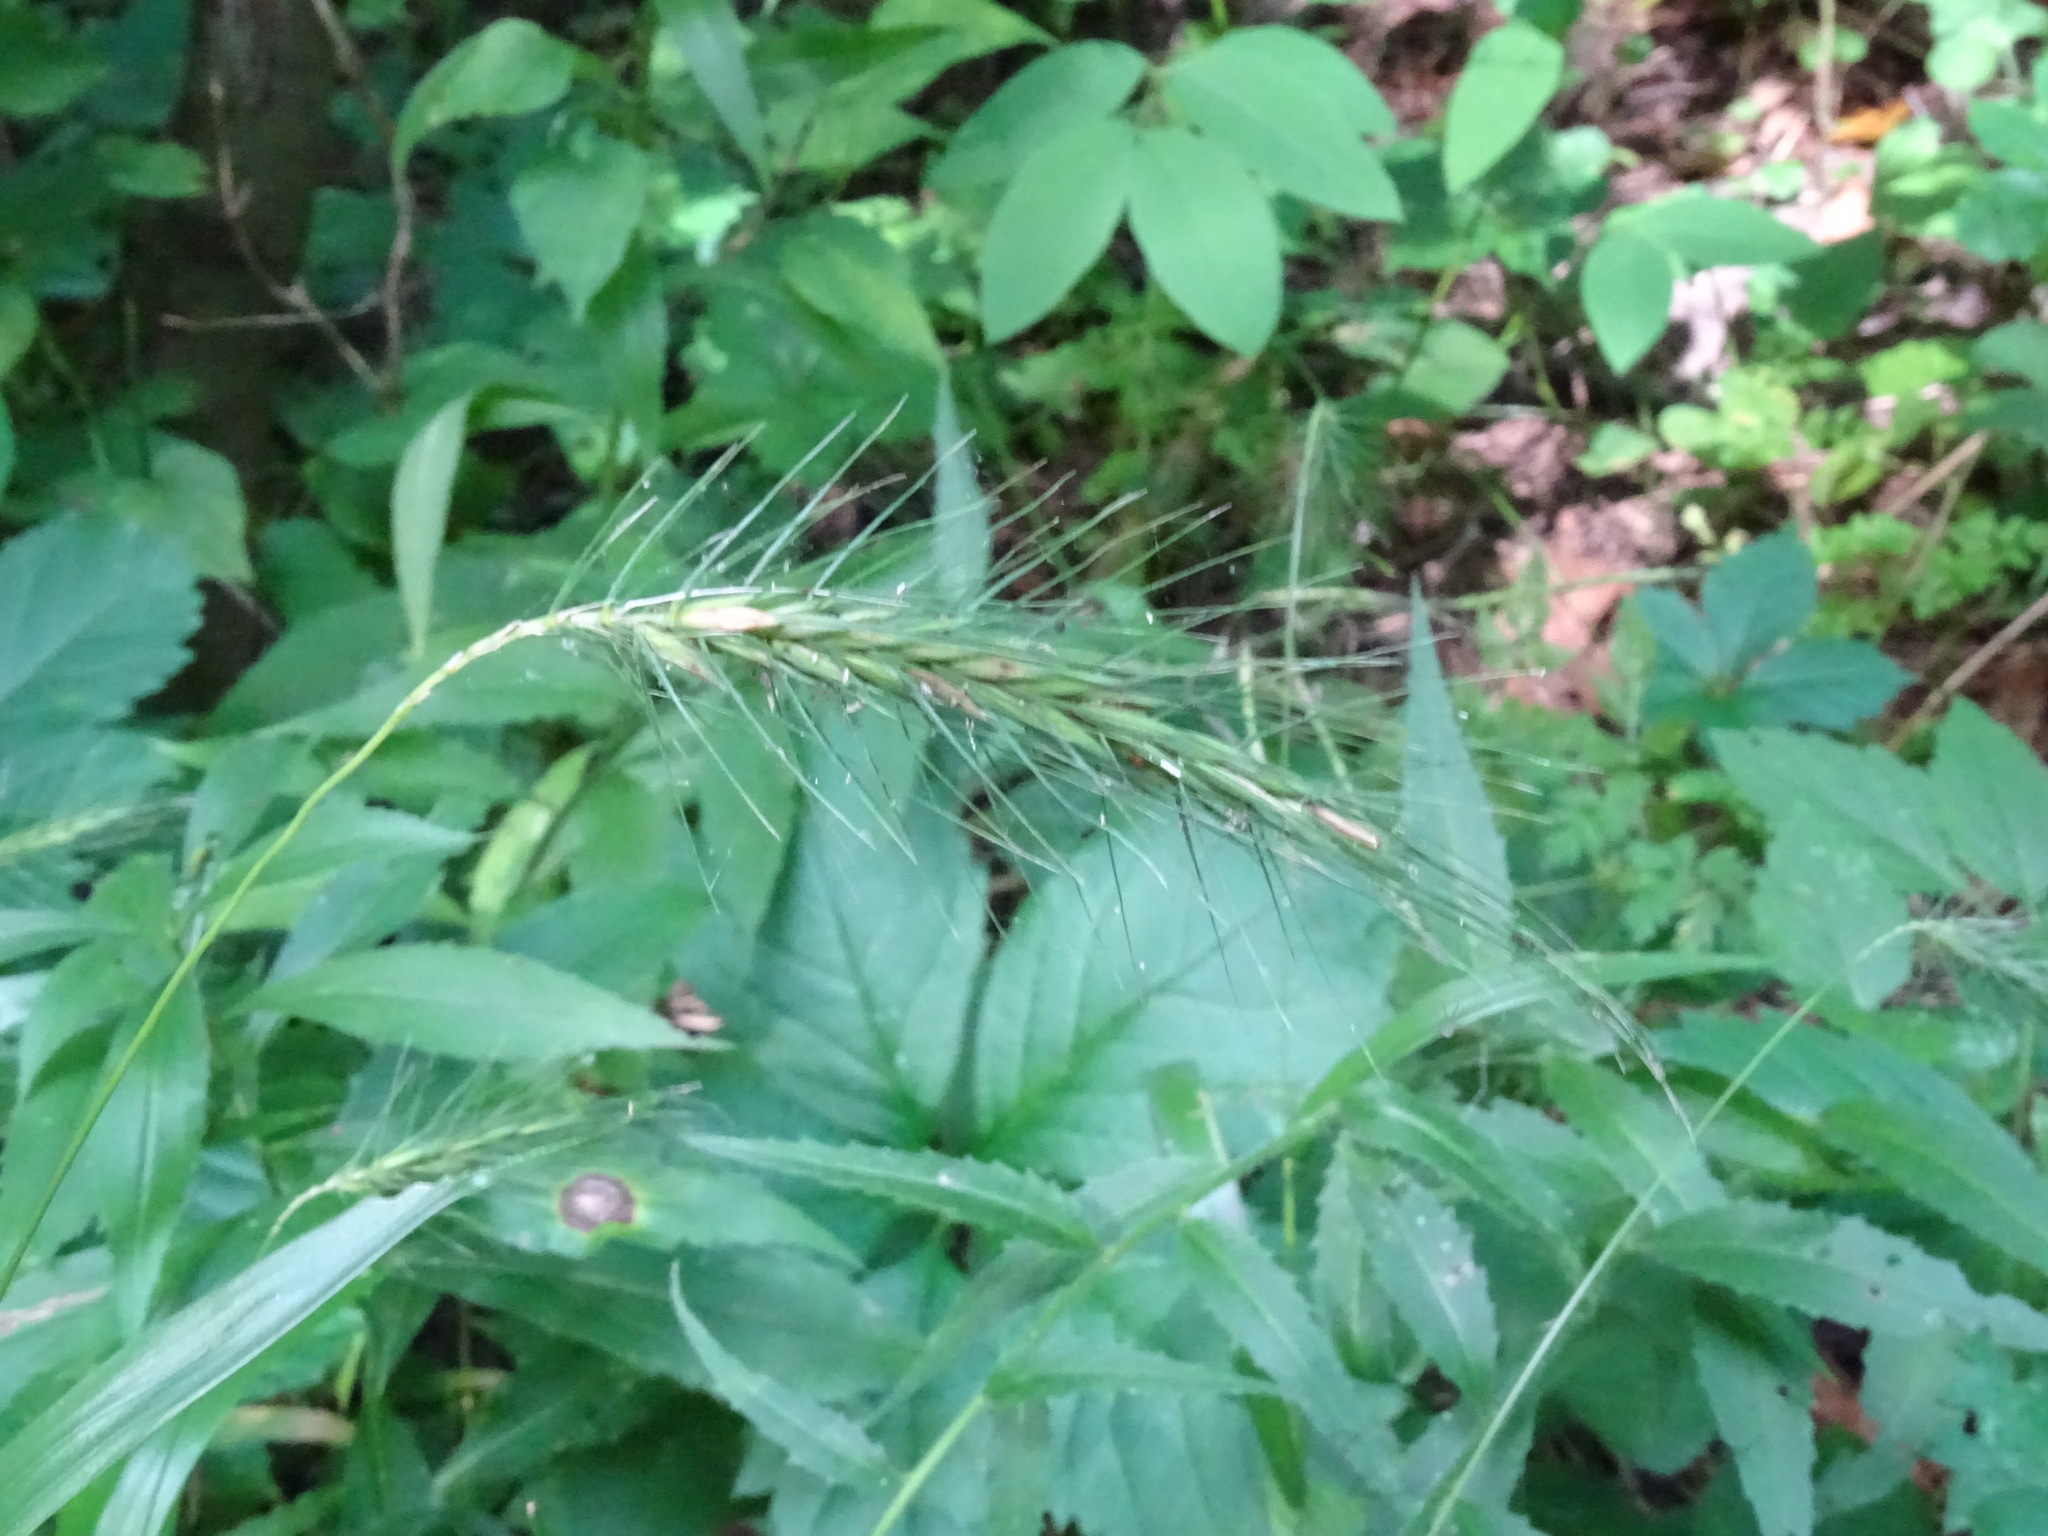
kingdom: Plantae
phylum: Tracheophyta
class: Liliopsida
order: Poales
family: Poaceae
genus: Elymus
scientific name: Elymus villosus
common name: Downy wild rye
